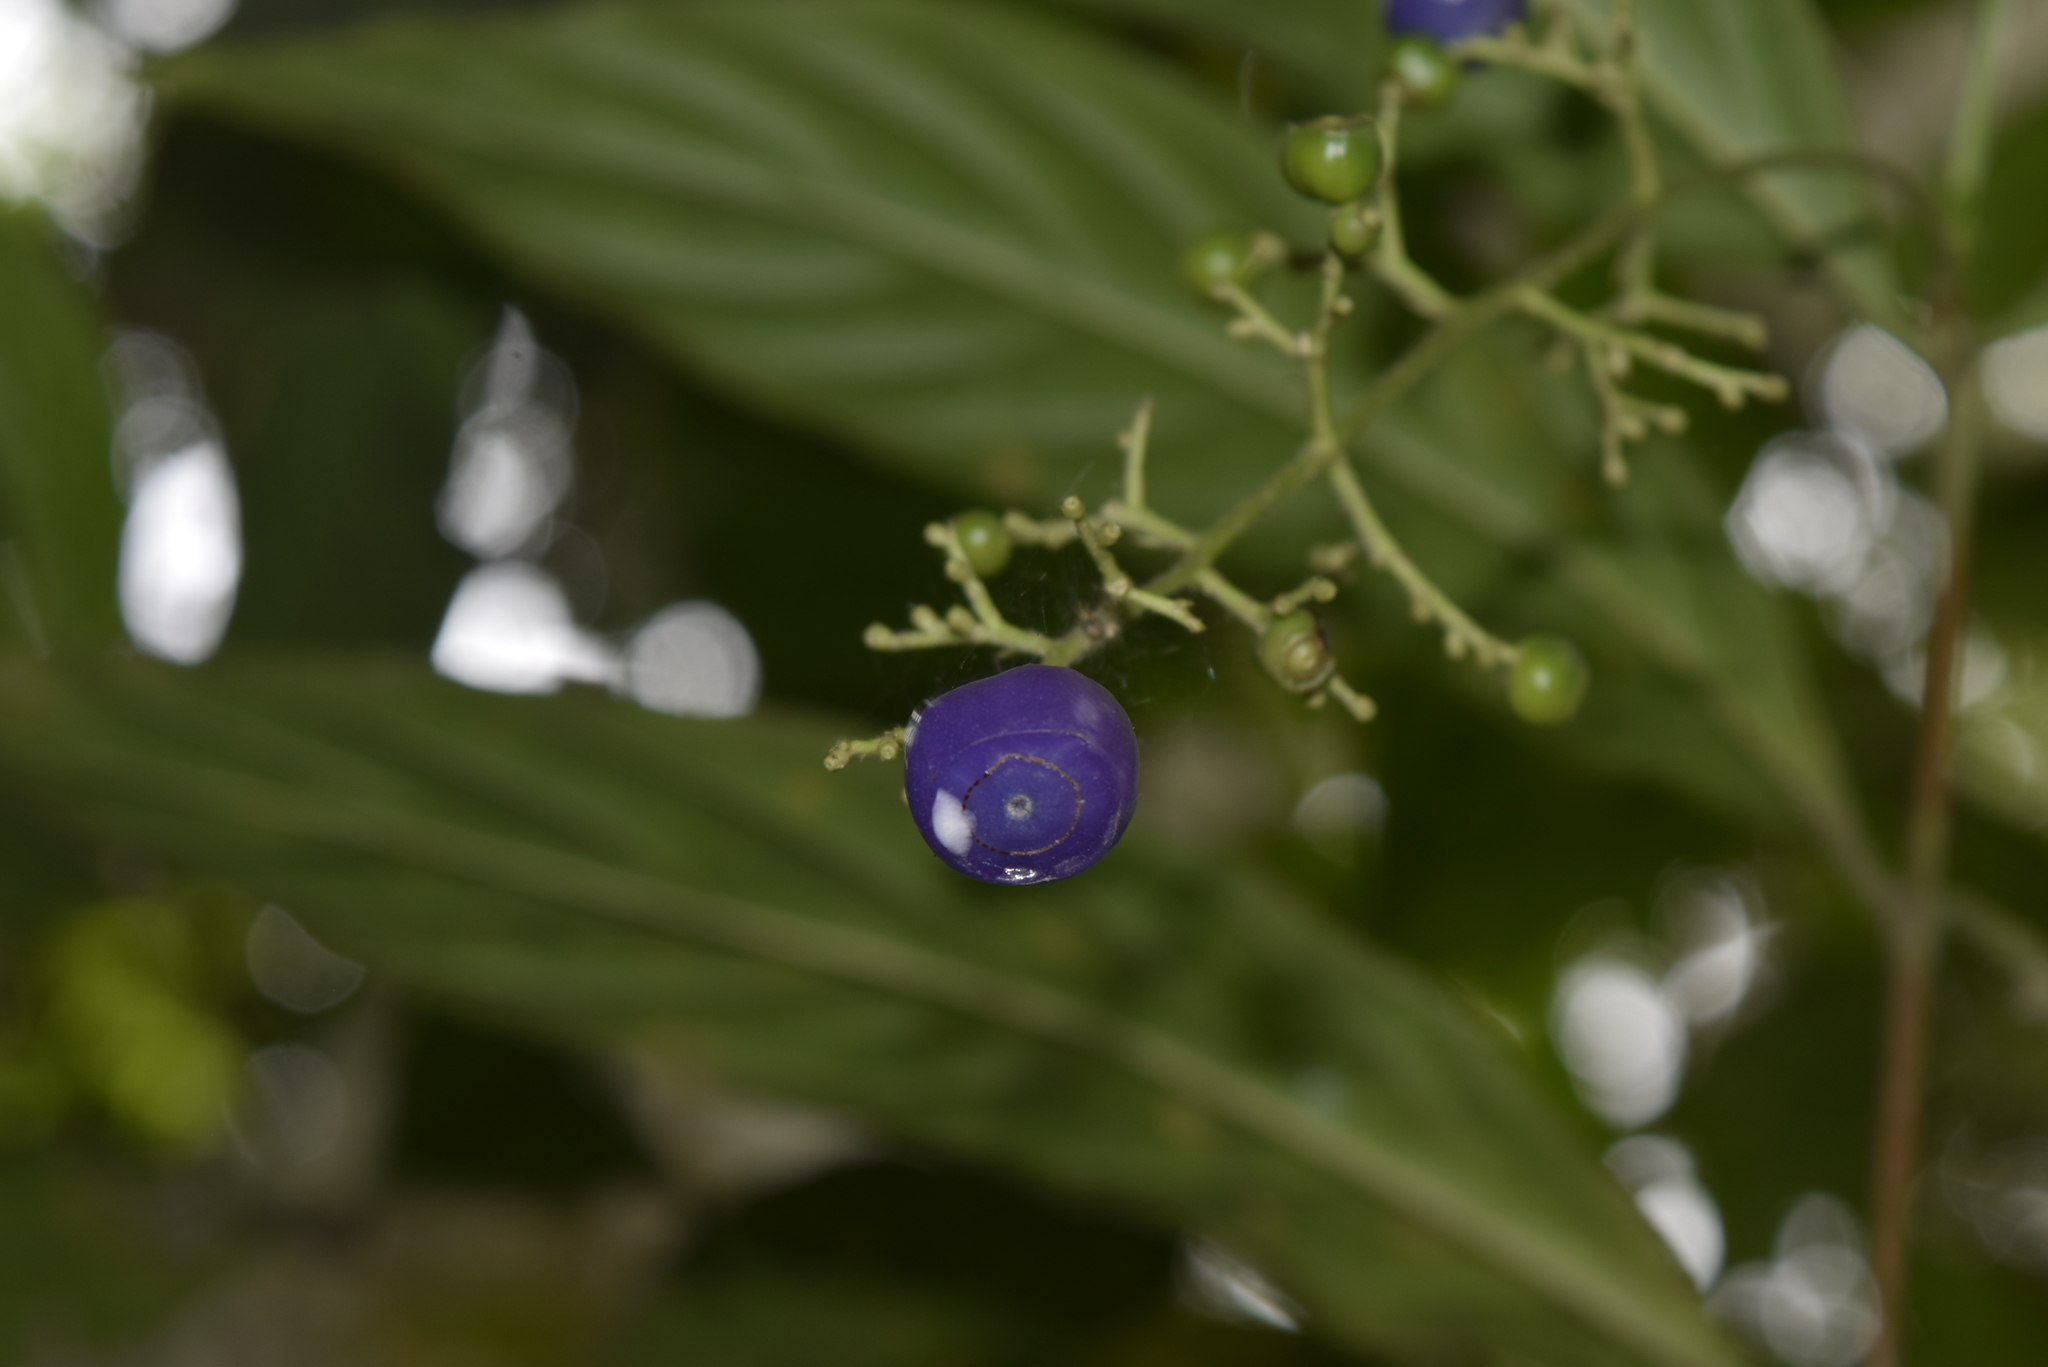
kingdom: Plantae
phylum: Tracheophyta
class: Magnoliopsida
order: Gentianales
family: Rubiaceae
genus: Bertiera
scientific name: Bertiera procumbens
